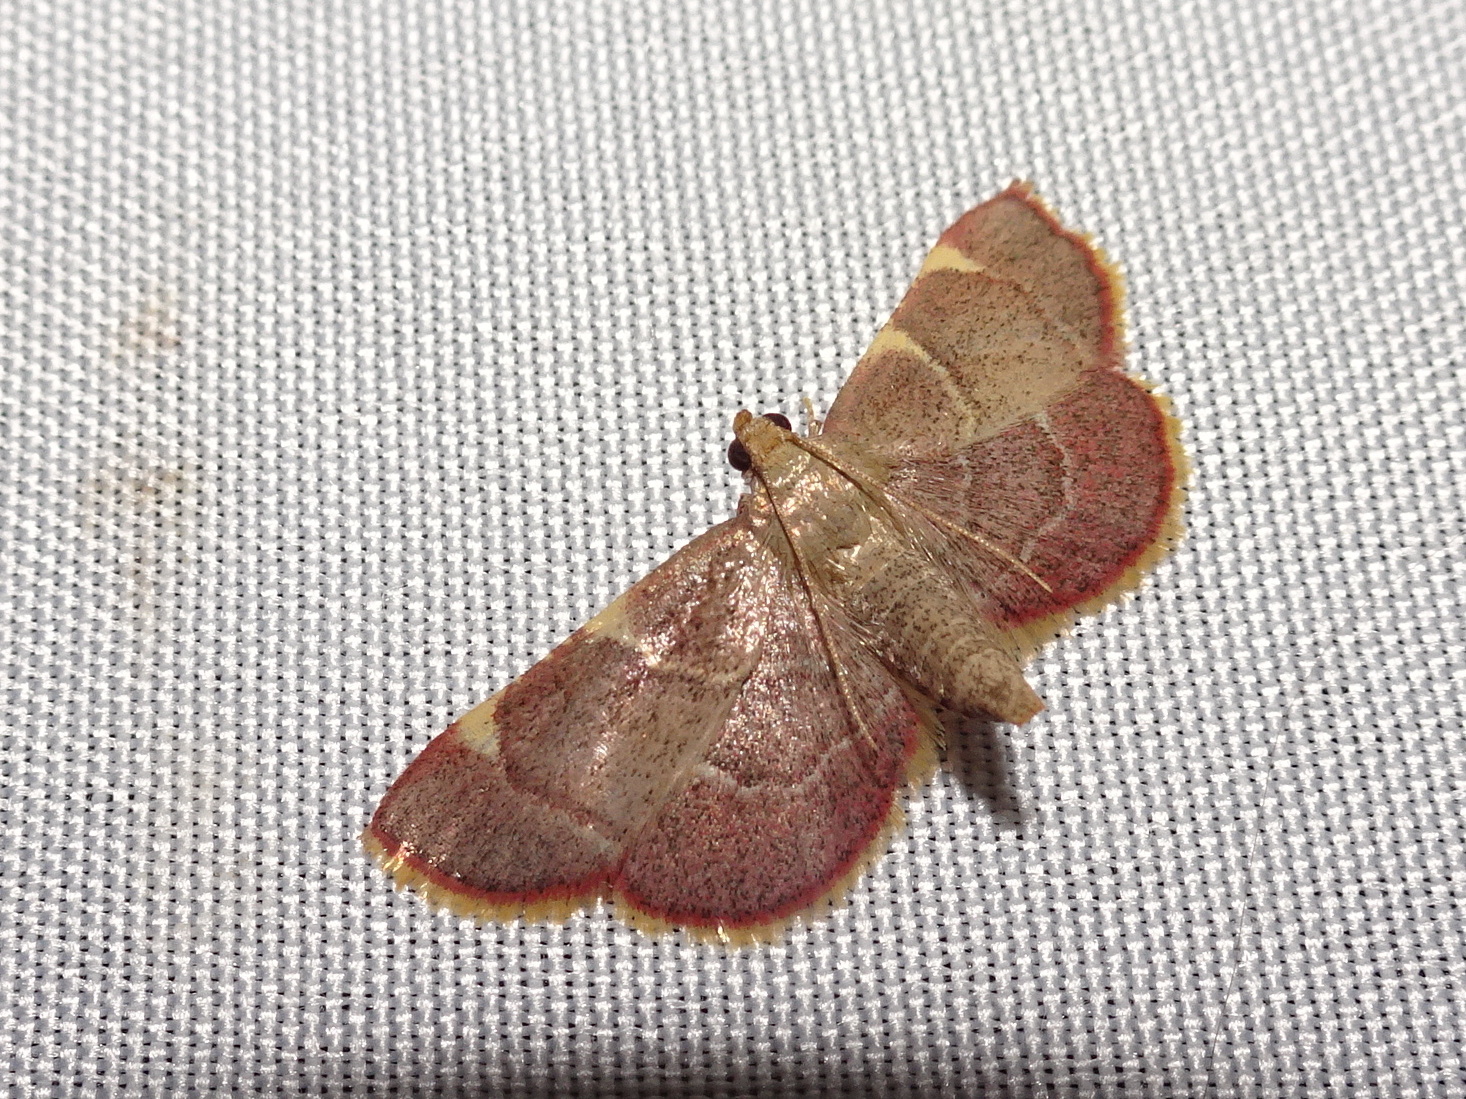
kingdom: Animalia
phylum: Arthropoda
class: Insecta
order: Lepidoptera
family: Pyralidae
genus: Hypsopygia
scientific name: Hypsopygia olinalis
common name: Yellow-fringed dolichomia moth
